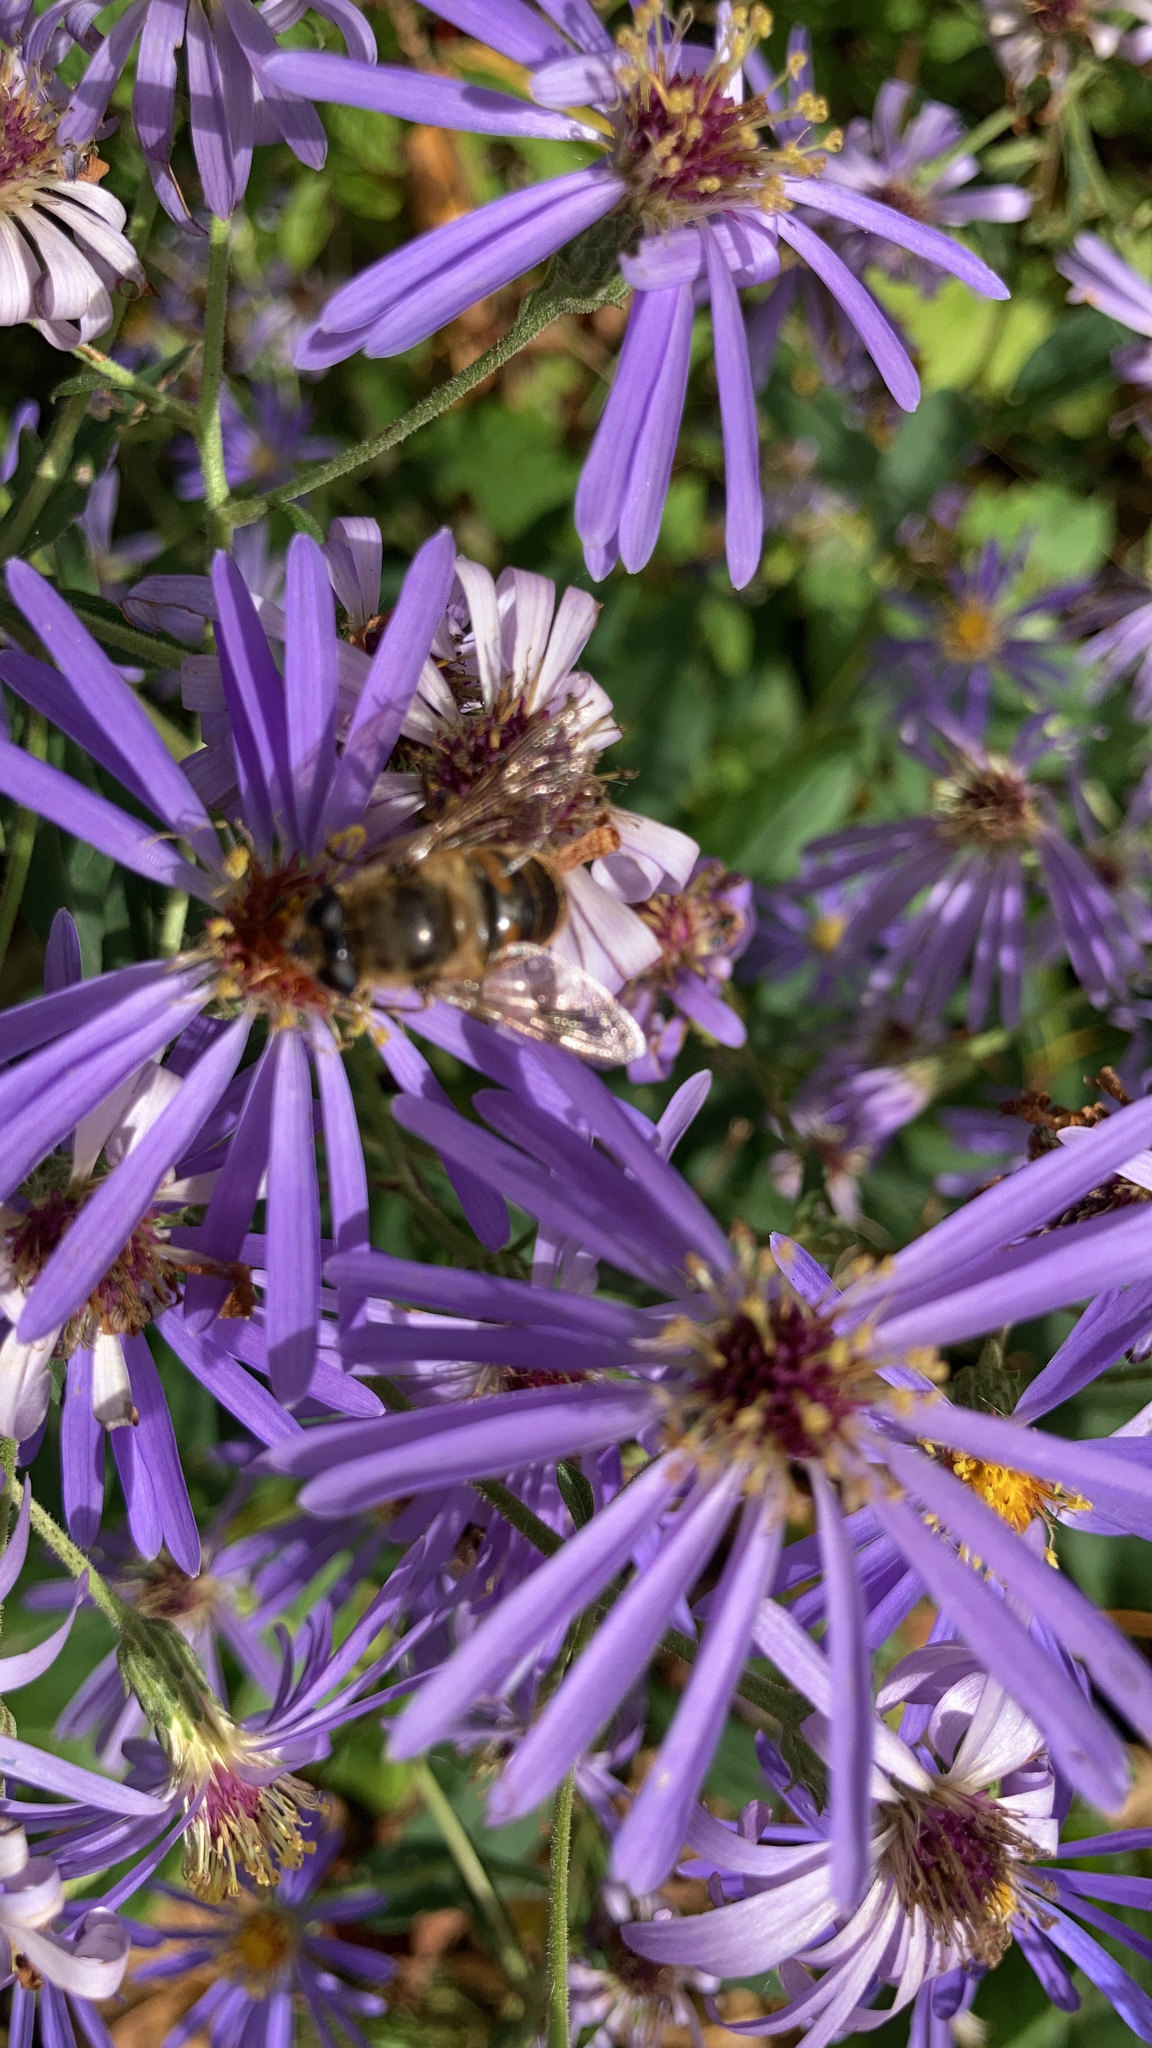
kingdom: Animalia
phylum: Arthropoda
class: Insecta
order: Diptera
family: Syrphidae
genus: Eristalis
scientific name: Eristalis tenax
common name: Drone fly
